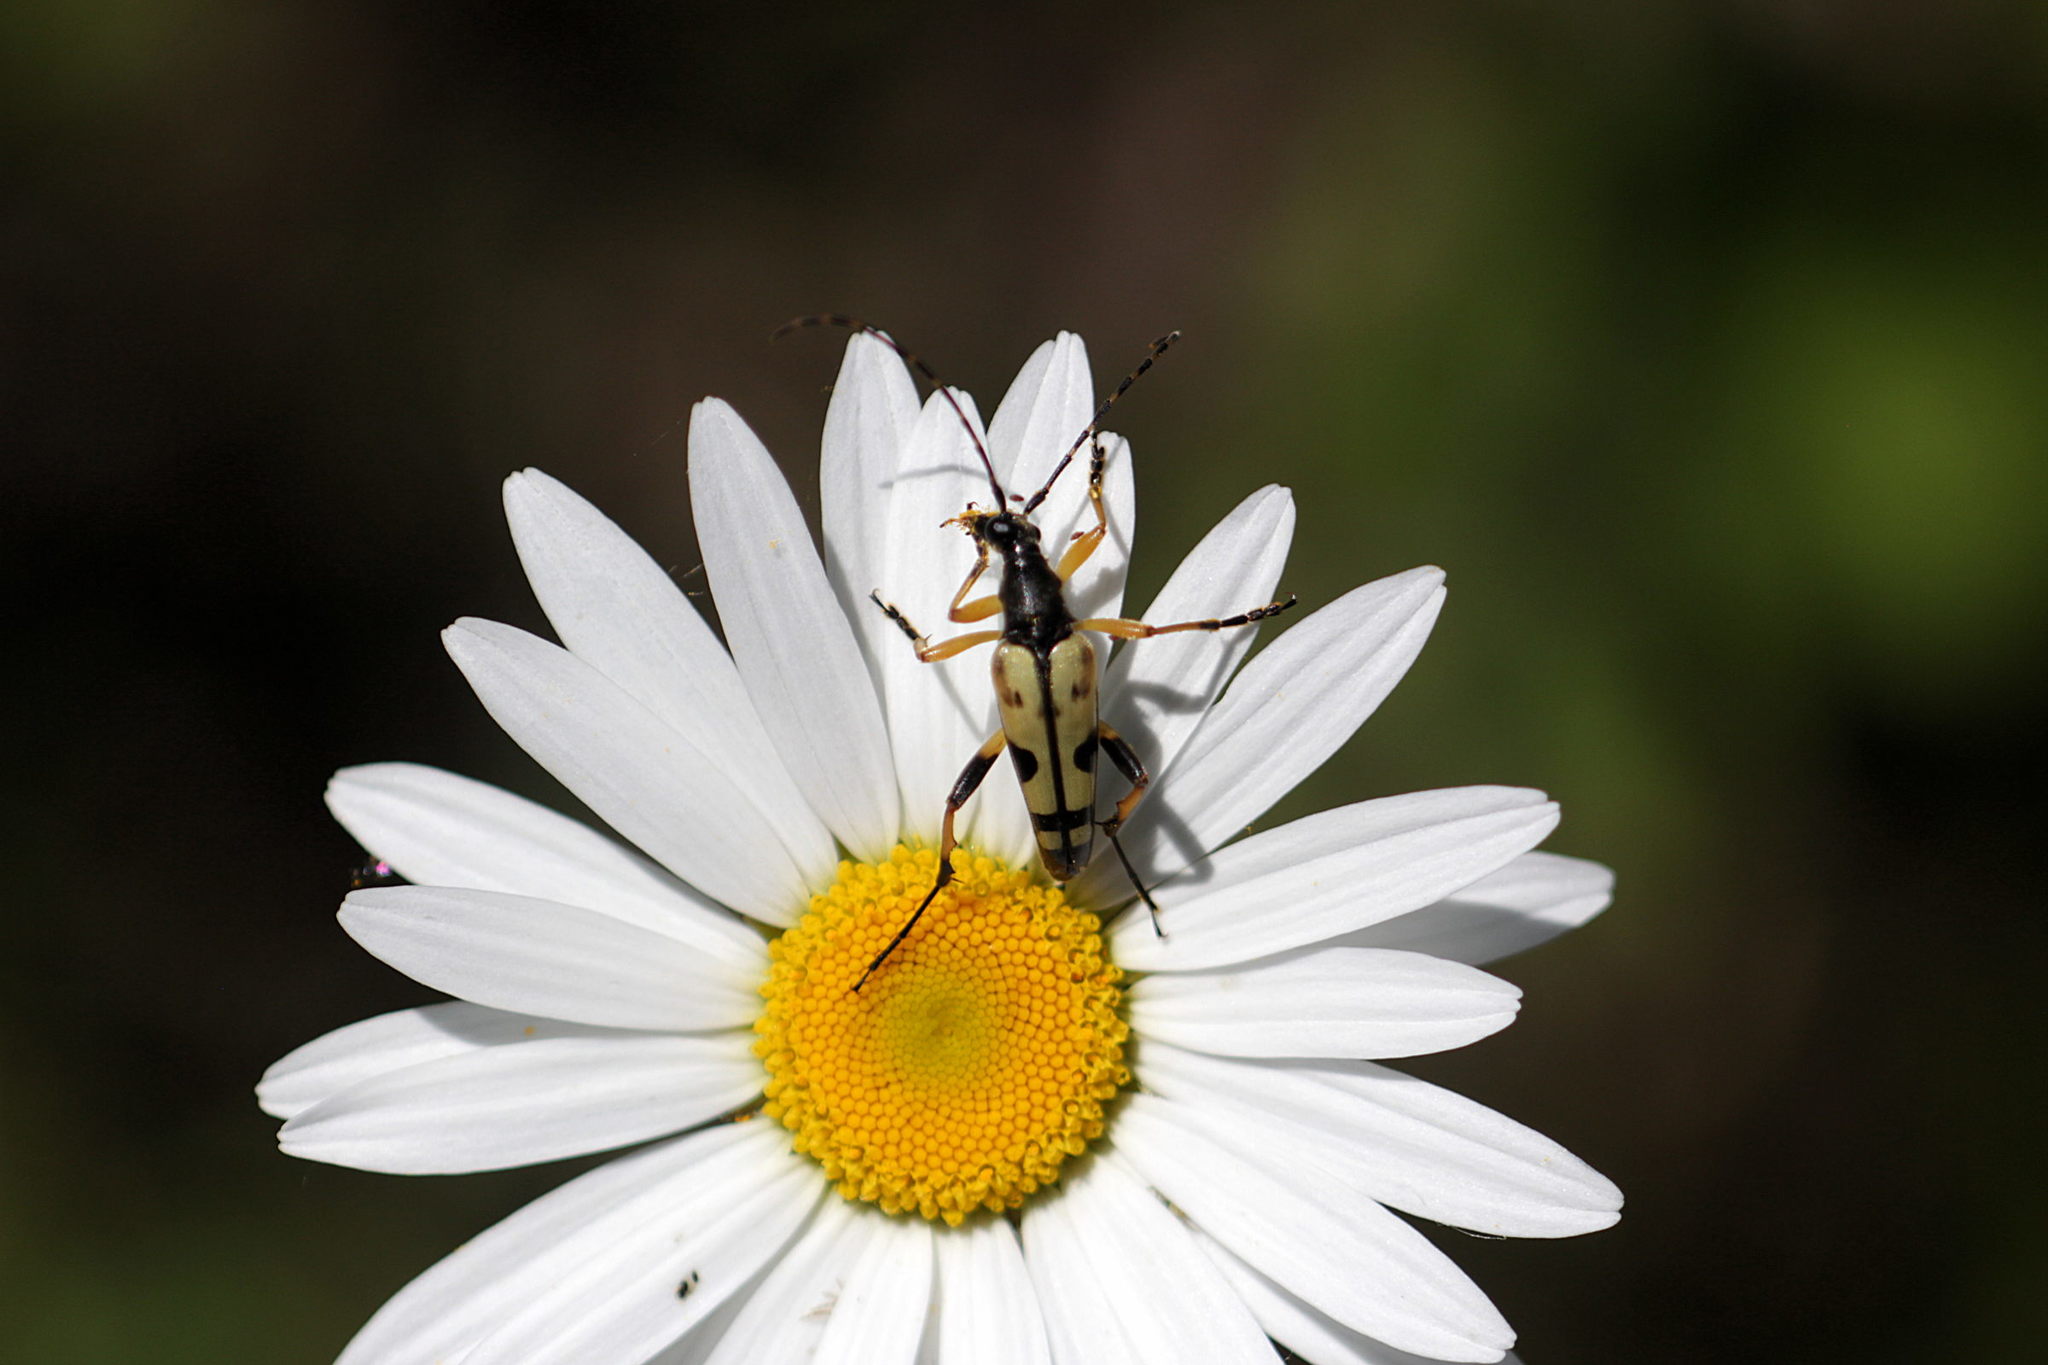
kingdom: Animalia
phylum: Arthropoda
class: Insecta
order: Coleoptera
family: Cerambycidae
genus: Rutpela
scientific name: Rutpela maculata
